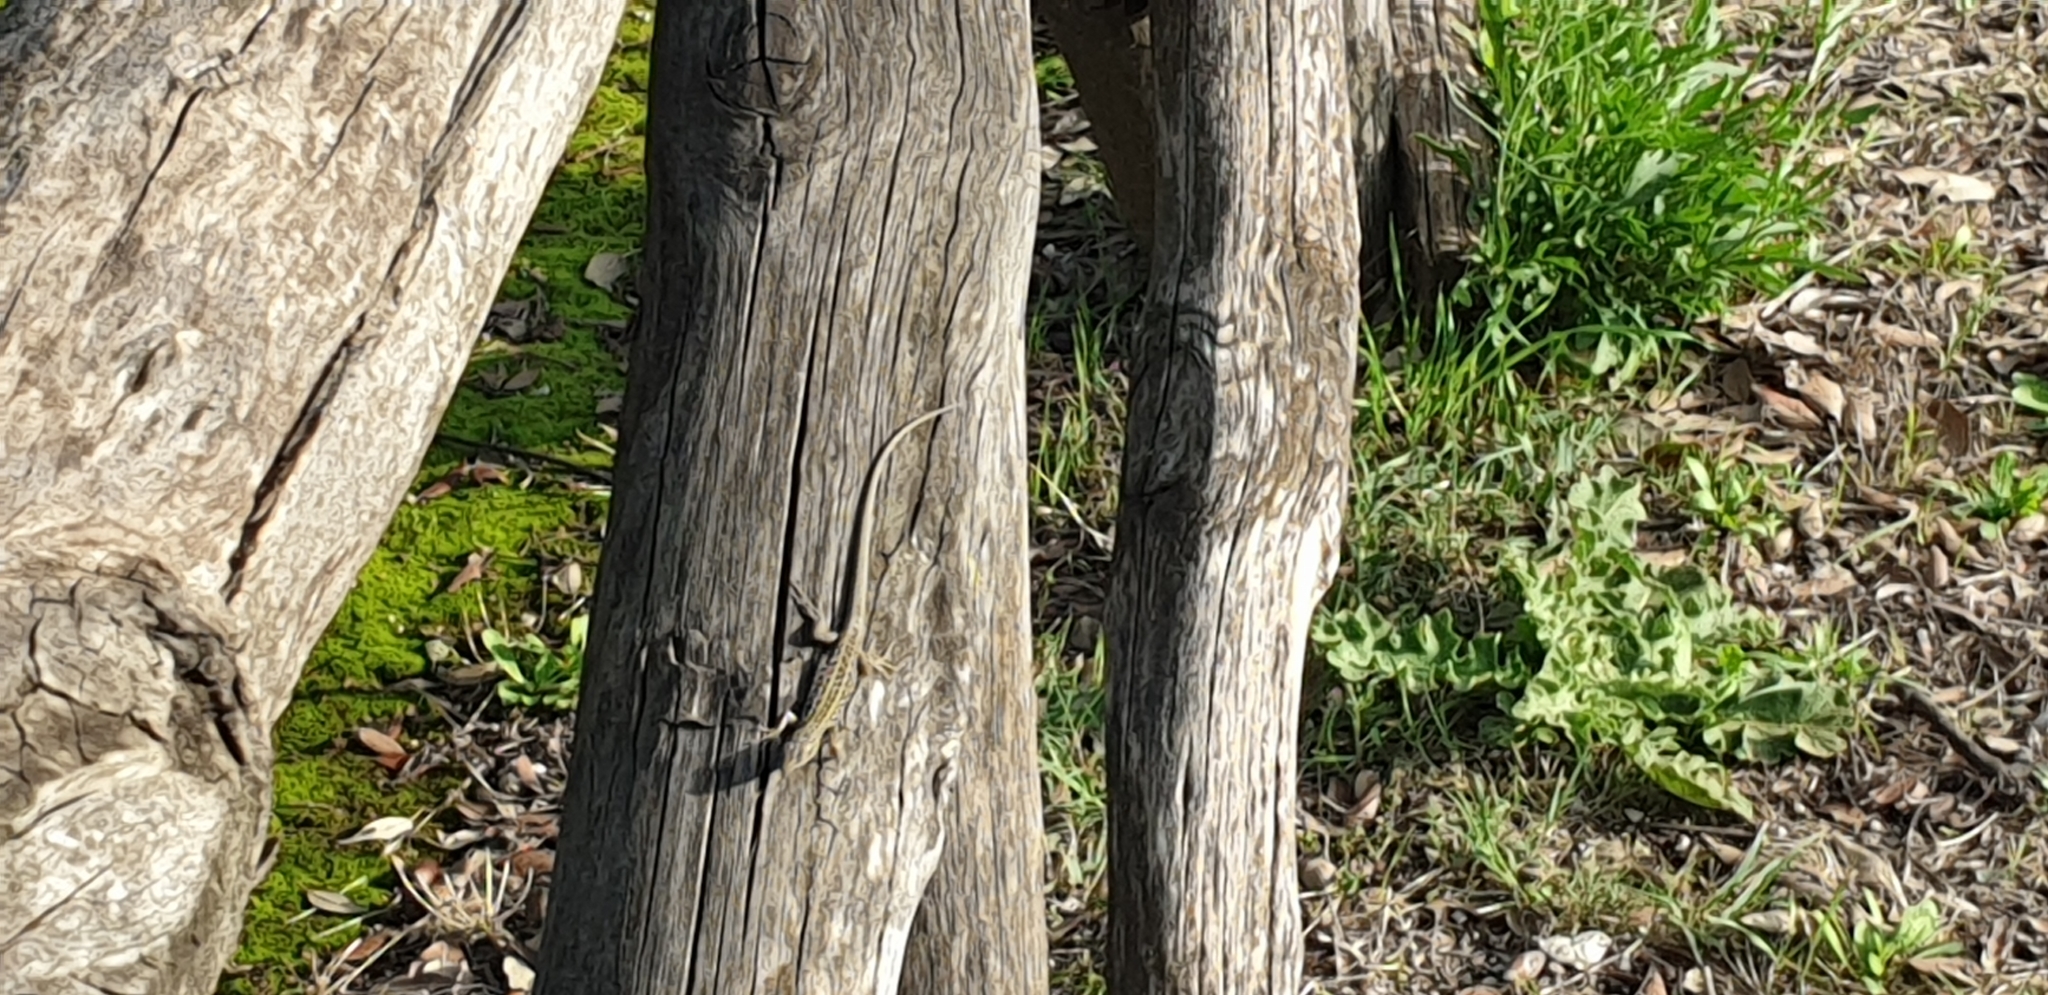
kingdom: Animalia
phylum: Chordata
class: Squamata
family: Lacertidae
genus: Podarcis
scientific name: Podarcis siculus
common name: Italian wall lizard
